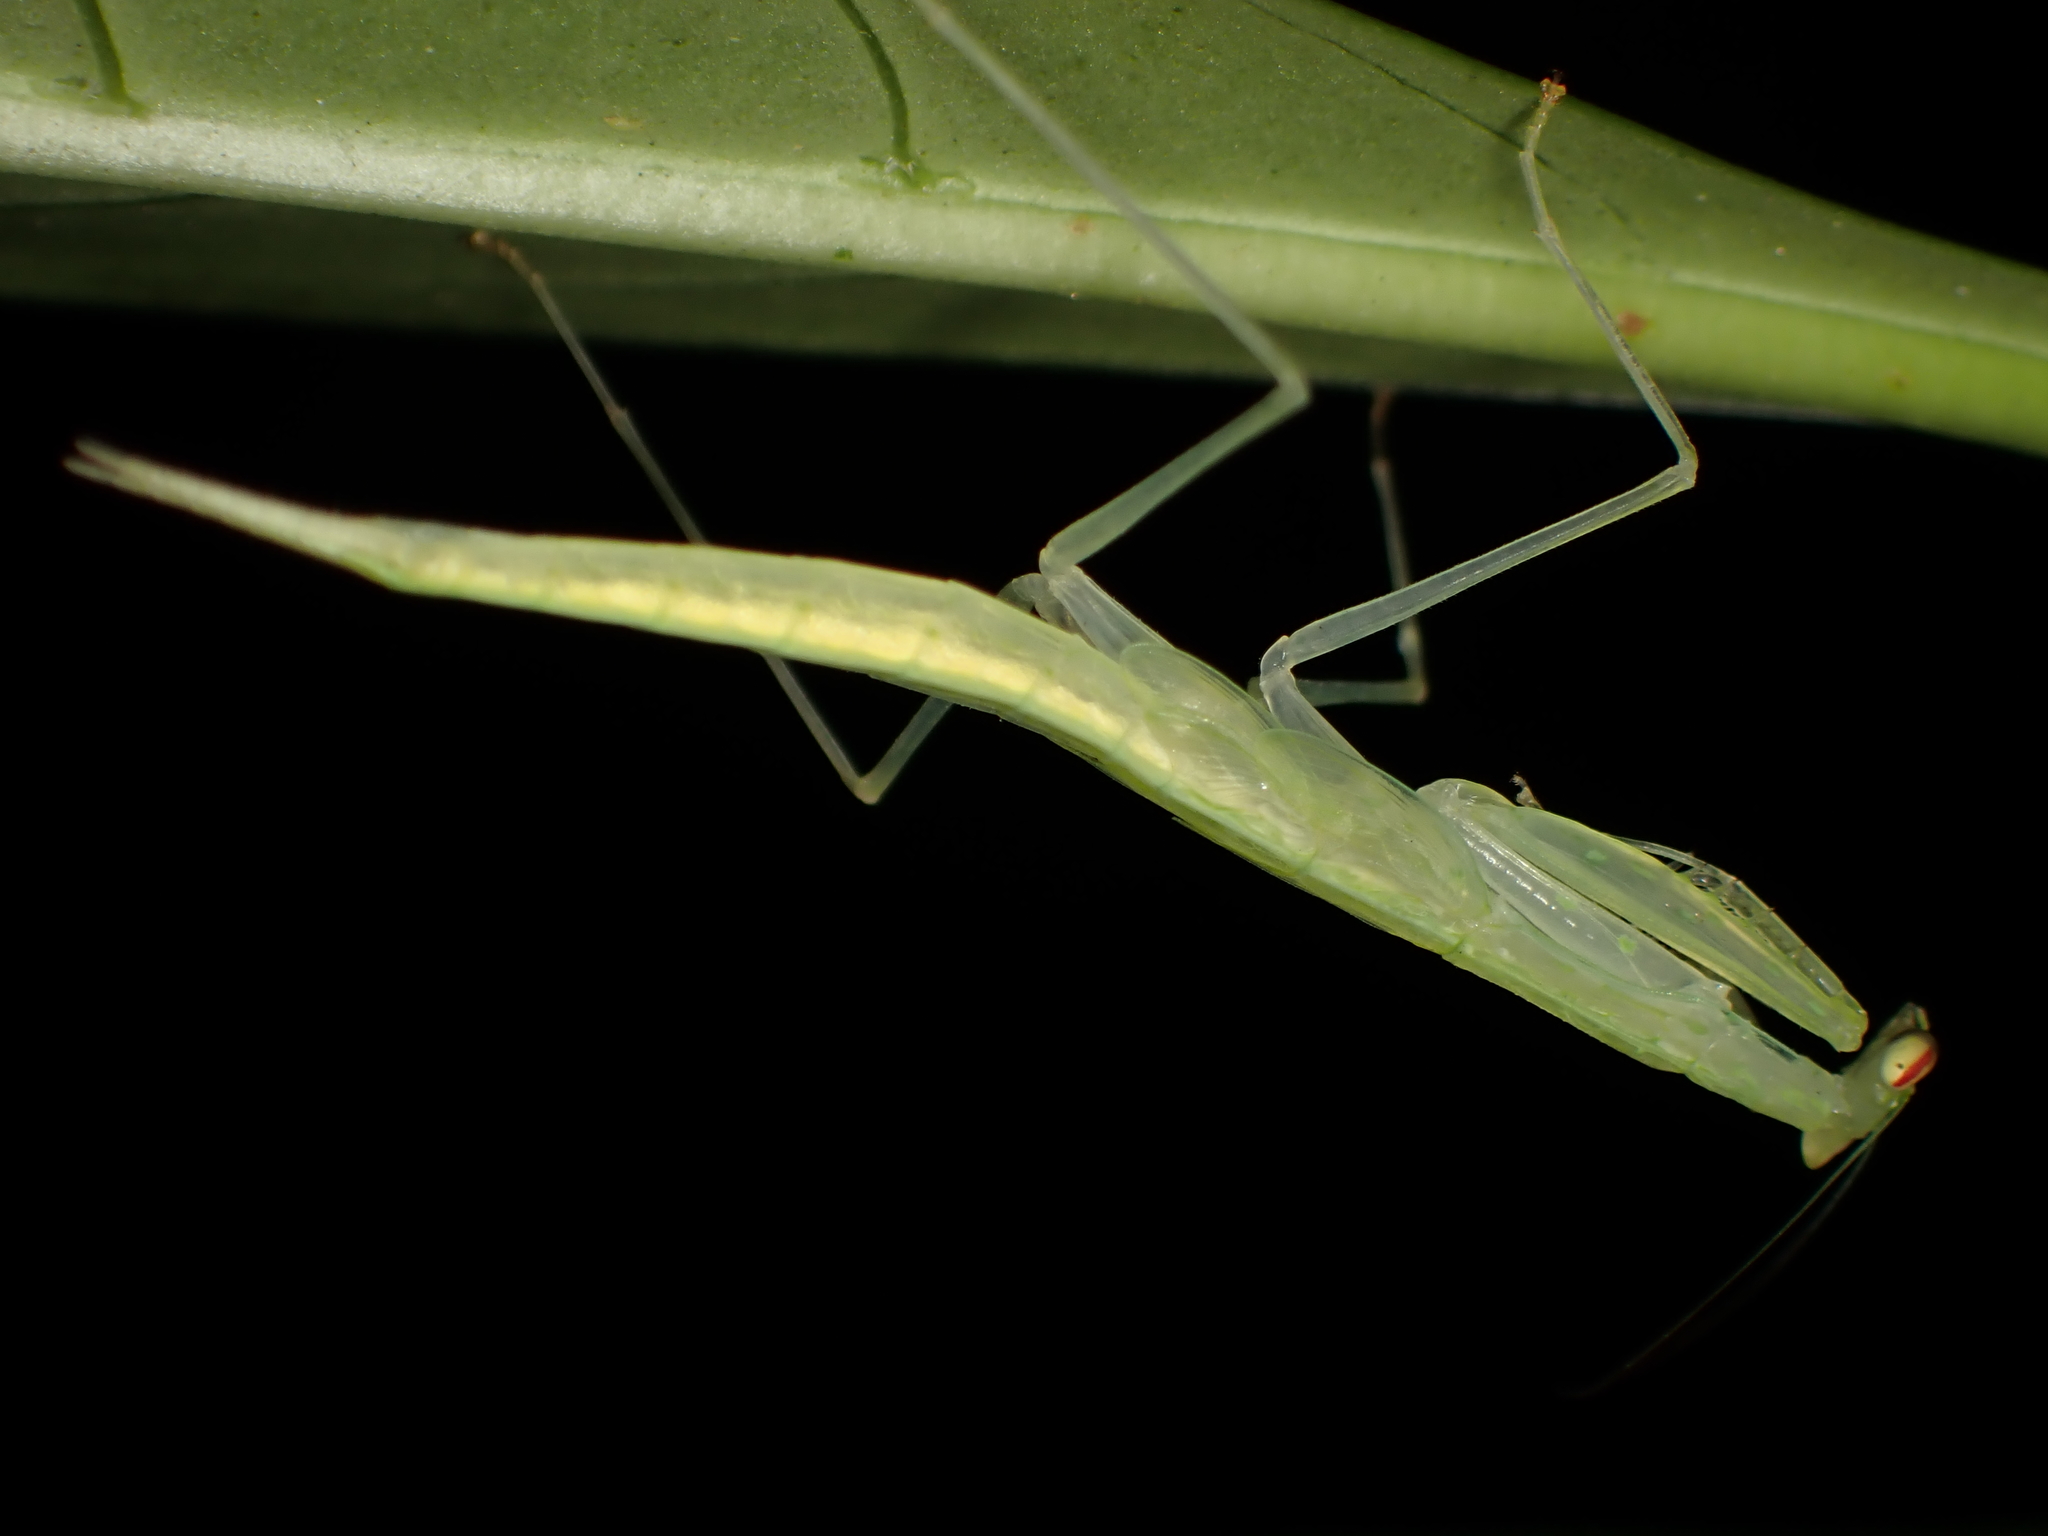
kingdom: Animalia
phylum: Arthropoda
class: Insecta
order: Mantodea
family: Nanomantidae
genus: Sinomantis
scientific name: Sinomantis denticulata
